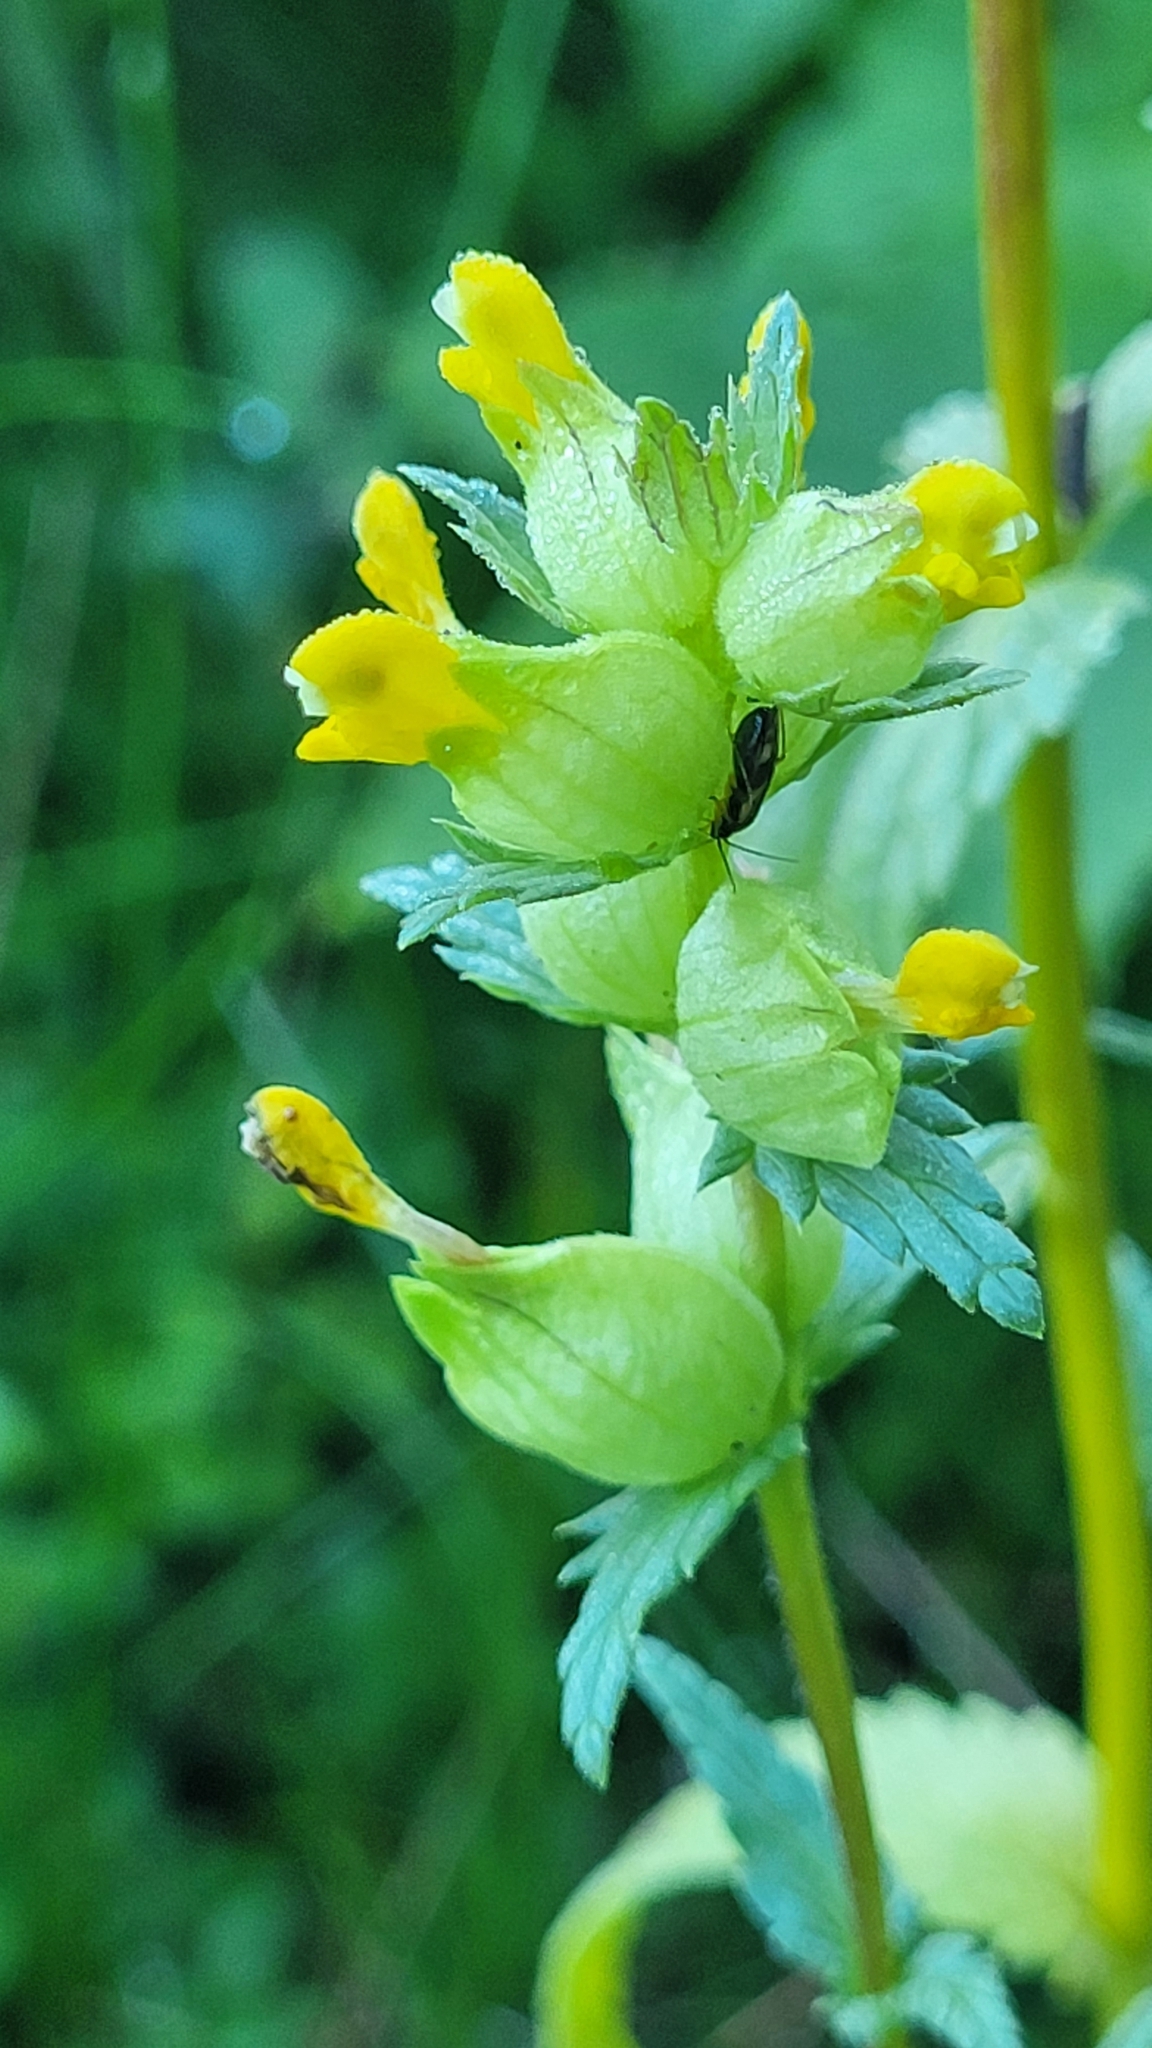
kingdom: Plantae
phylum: Tracheophyta
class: Magnoliopsida
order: Lamiales
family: Orobanchaceae
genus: Rhinanthus
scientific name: Rhinanthus groenlandicus
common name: Little yellow rattle
